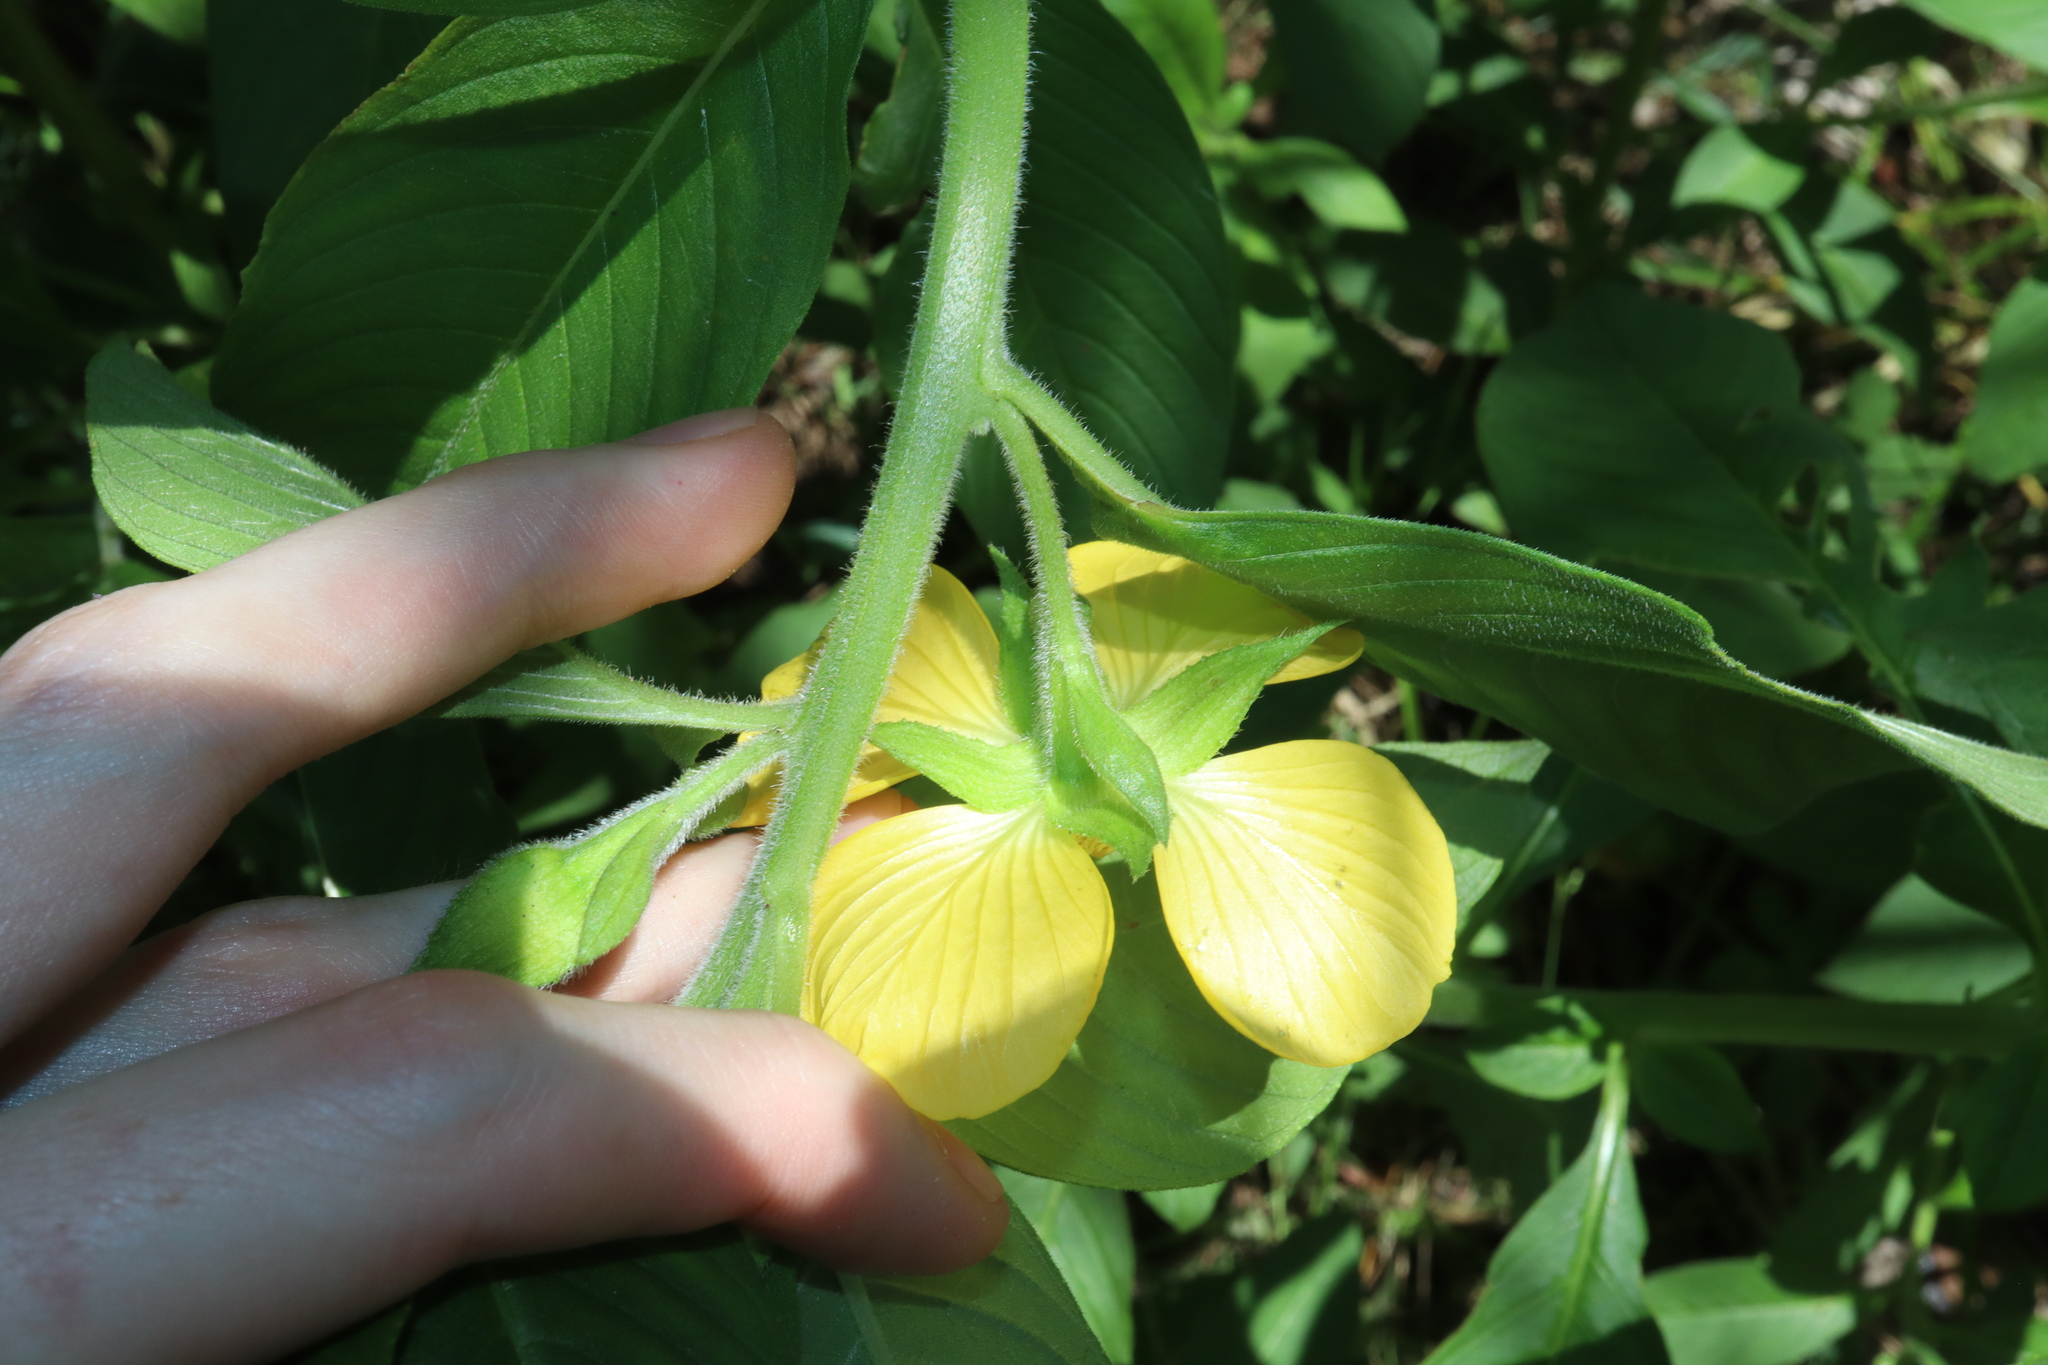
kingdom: Plantae
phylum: Tracheophyta
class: Magnoliopsida
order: Myrtales
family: Onagraceae
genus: Ludwigia
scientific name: Ludwigia peruviana
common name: Peruvian primrose-willow
